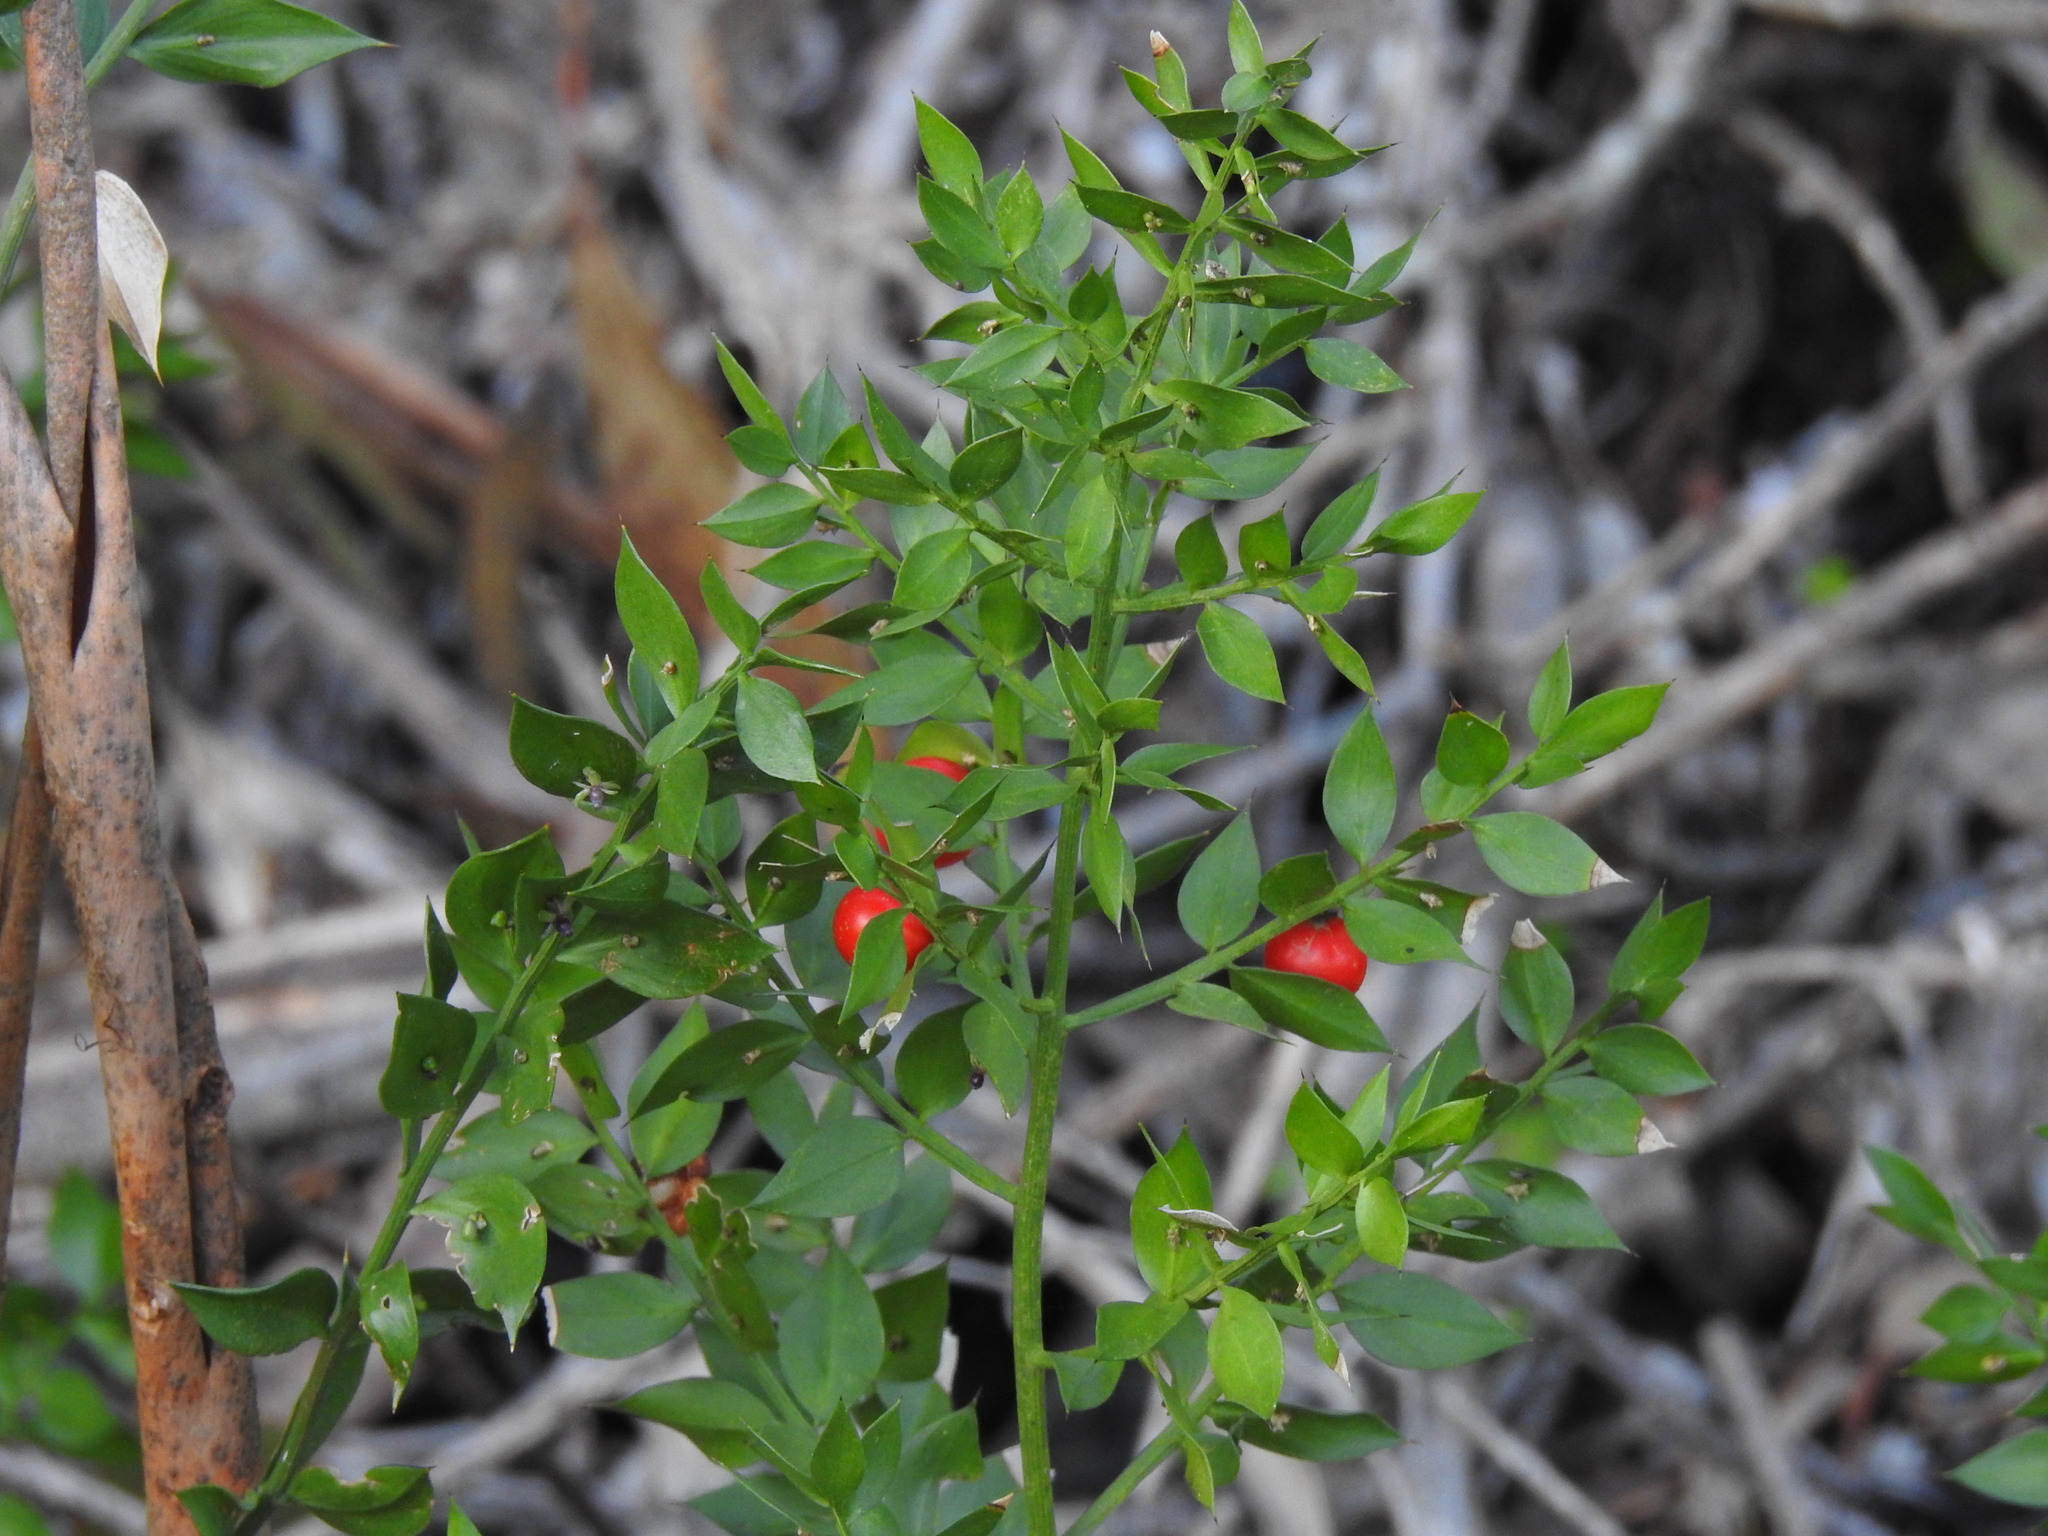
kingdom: Plantae
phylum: Tracheophyta
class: Liliopsida
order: Asparagales
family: Asparagaceae
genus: Ruscus
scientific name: Ruscus aculeatus
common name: Butcher's-broom
